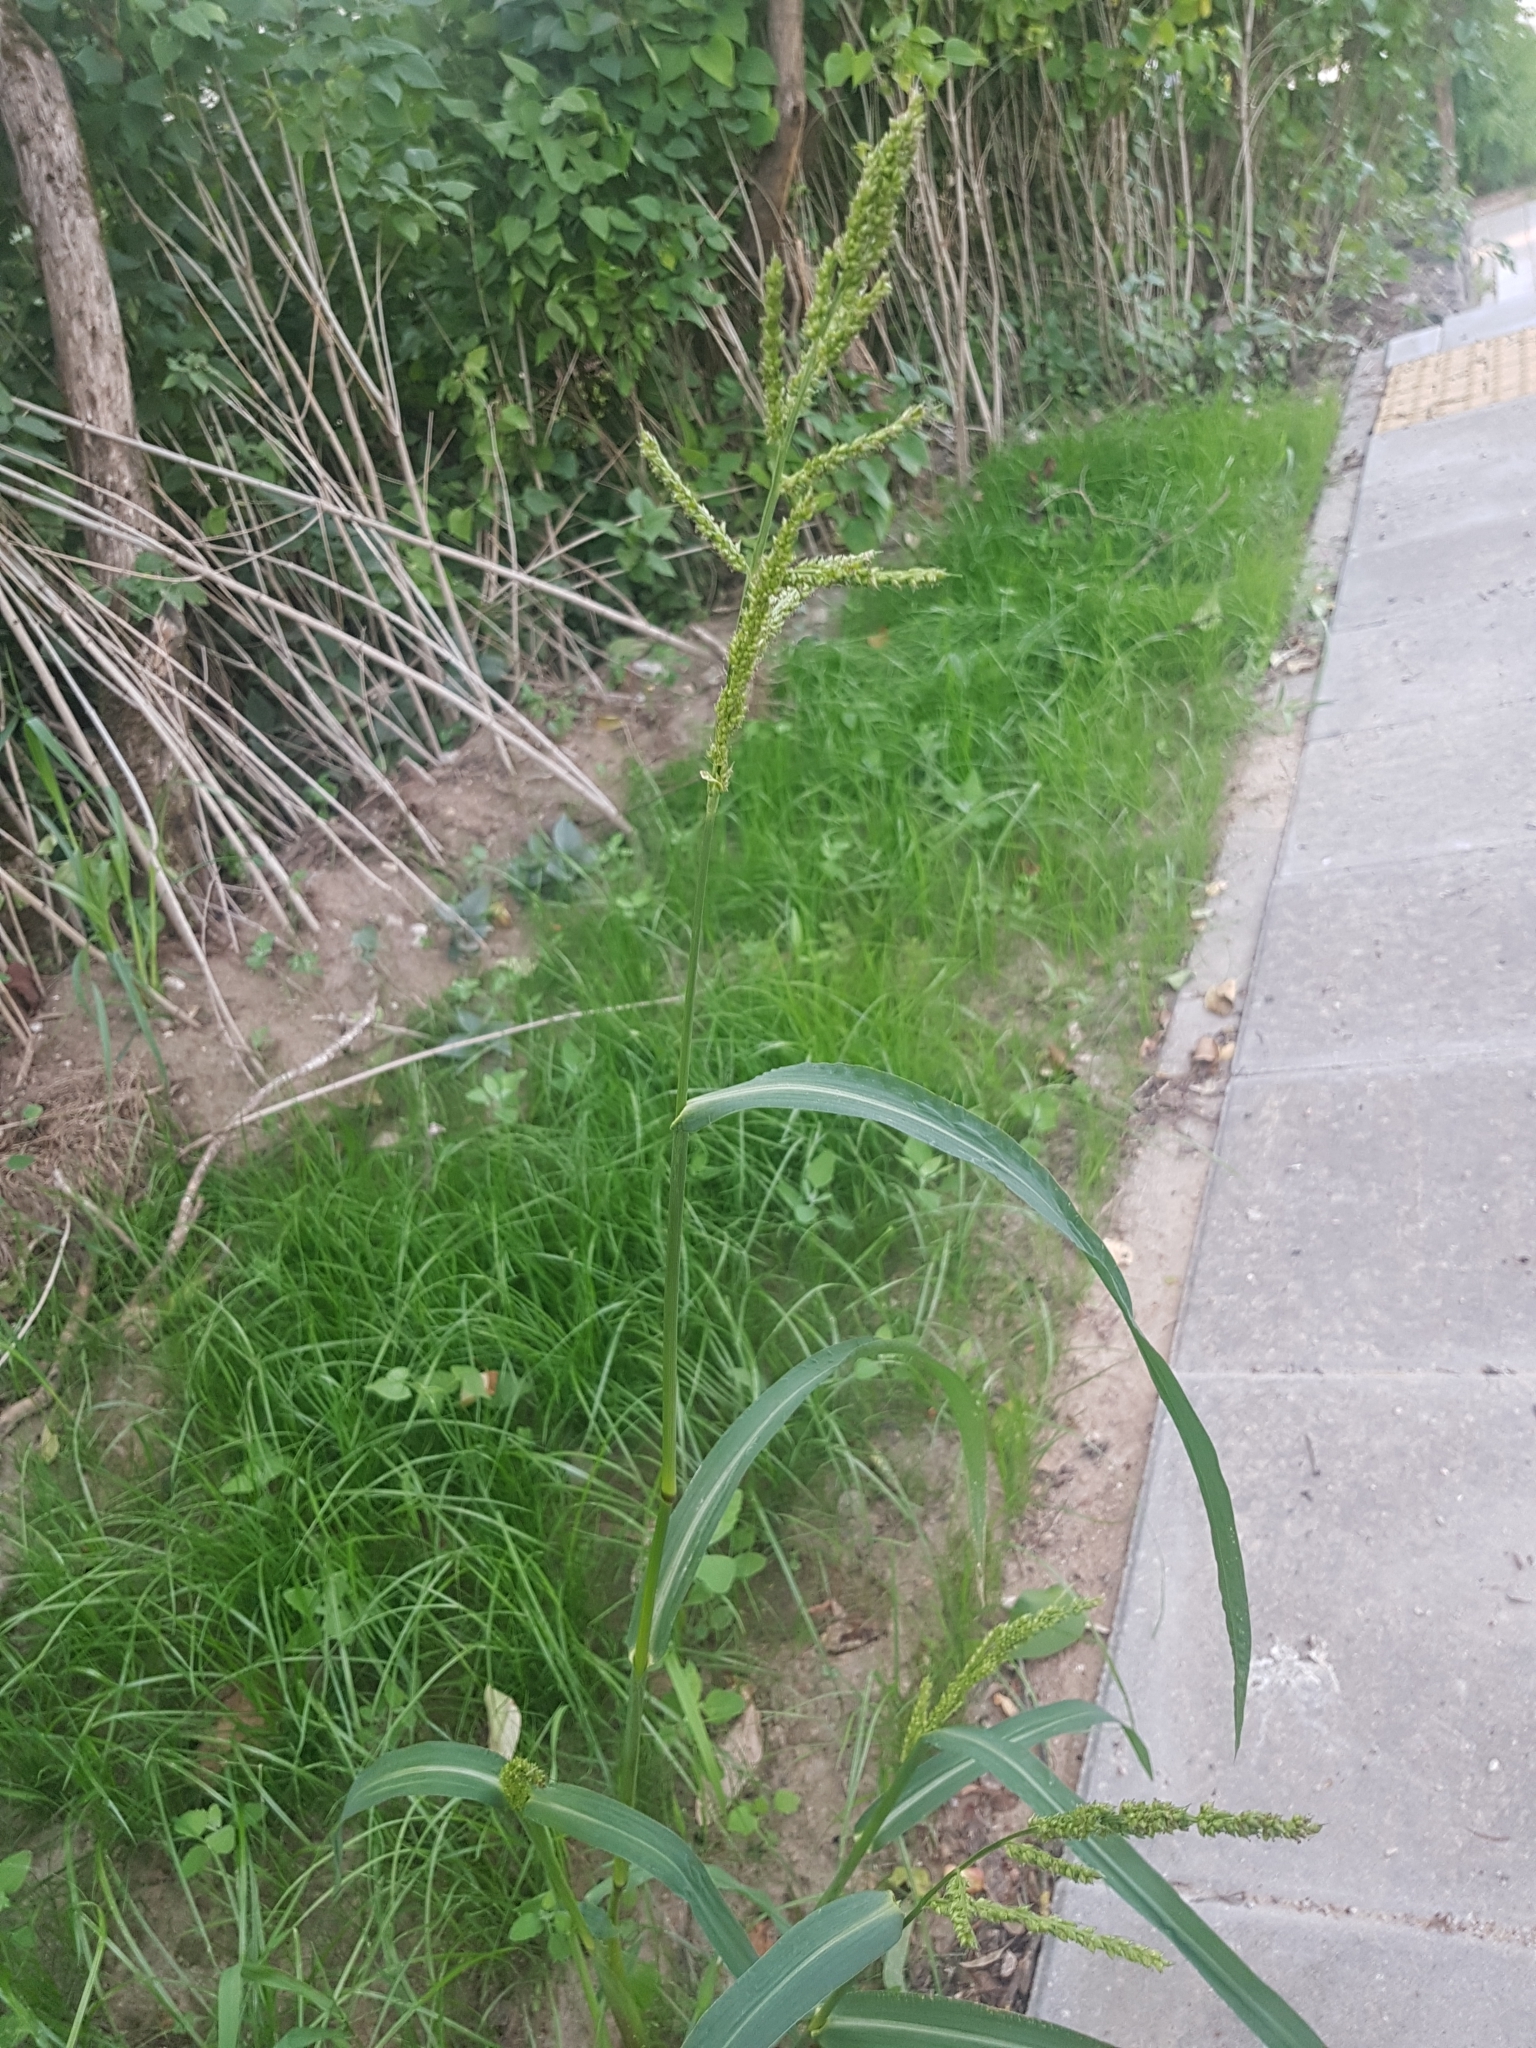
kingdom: Plantae
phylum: Tracheophyta
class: Liliopsida
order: Poales
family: Poaceae
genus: Echinochloa
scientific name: Echinochloa crus-galli
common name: Cockspur
